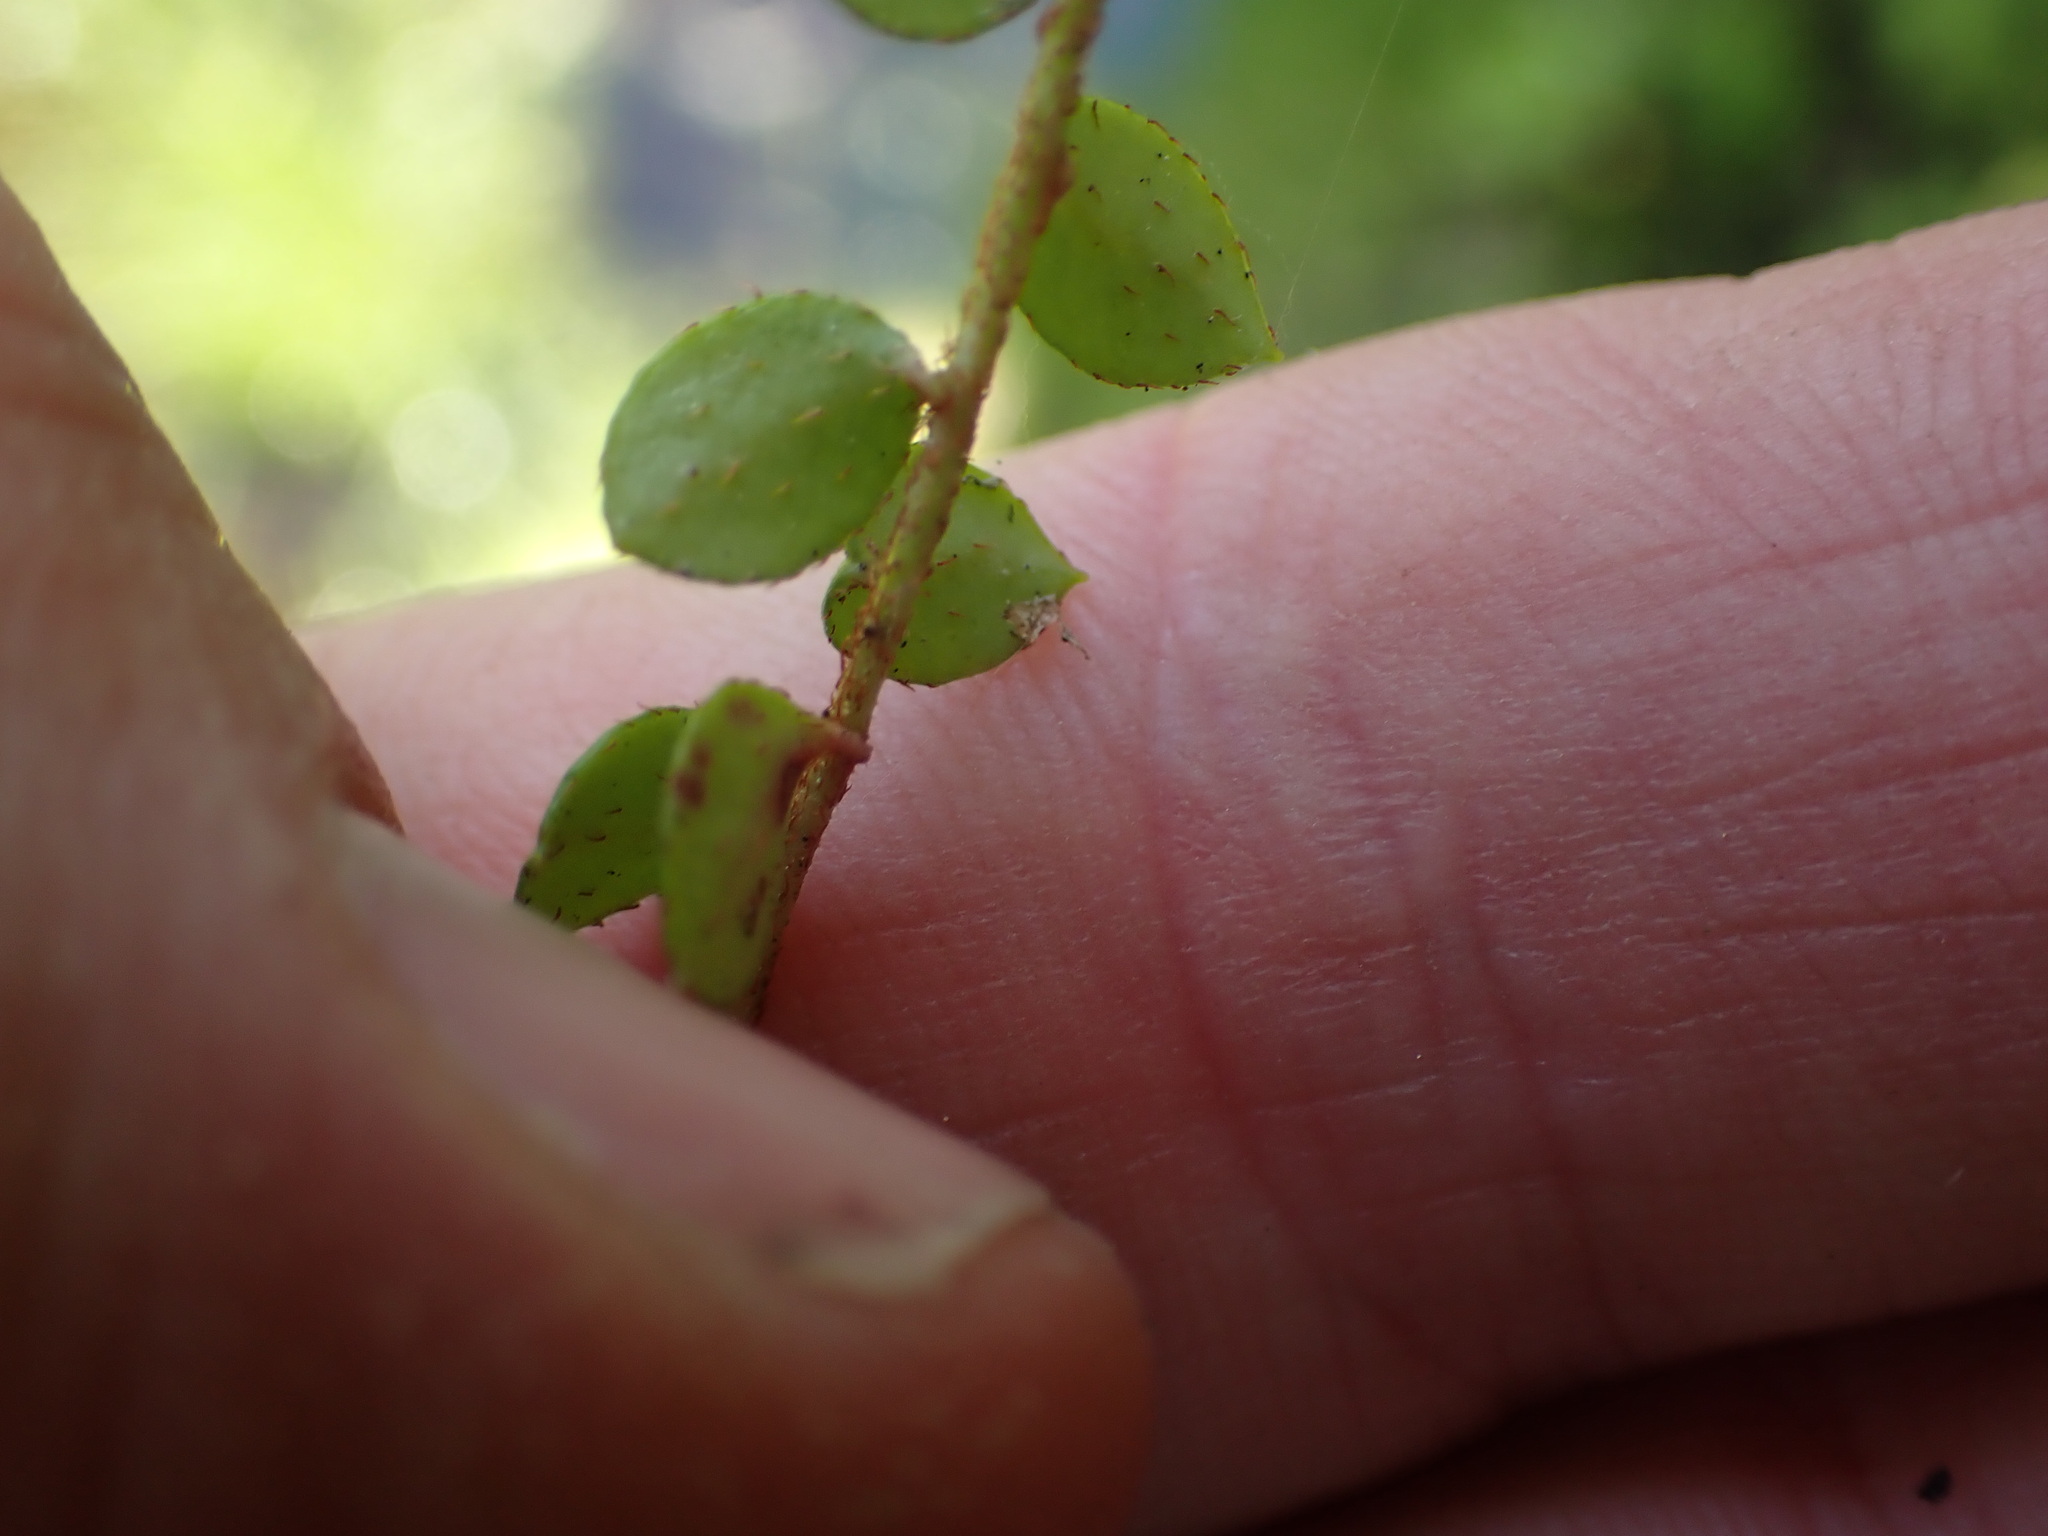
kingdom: Plantae
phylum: Tracheophyta
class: Magnoliopsida
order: Ericales
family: Ericaceae
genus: Gaultheria
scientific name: Gaultheria hispidula
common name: Cancer wintergreen
